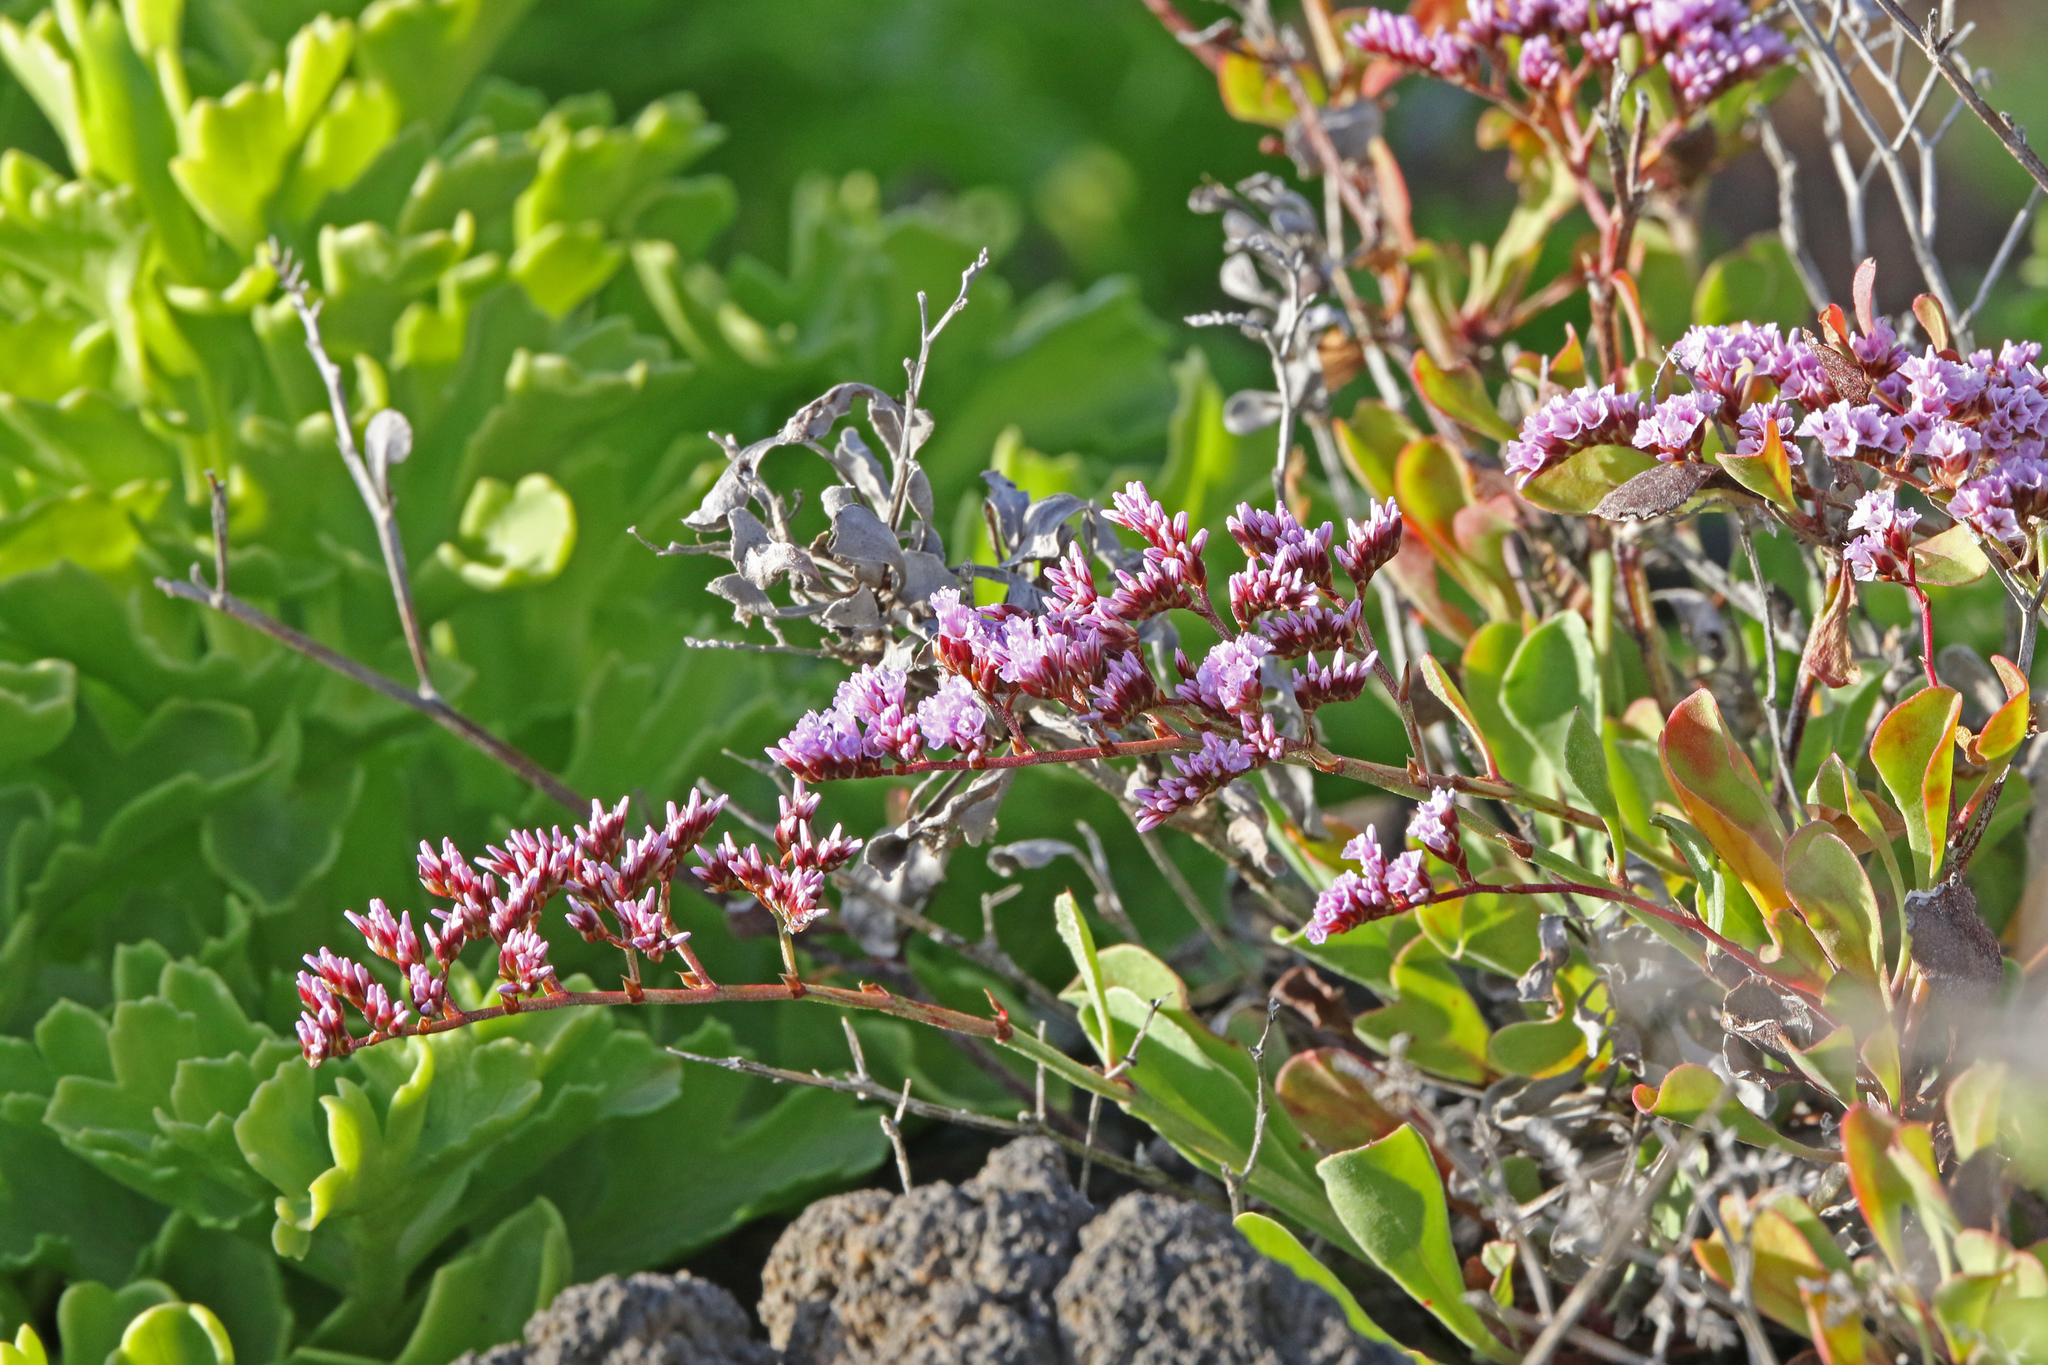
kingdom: Plantae
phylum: Tracheophyta
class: Magnoliopsida
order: Caryophyllales
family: Plumbaginaceae
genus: Limonium
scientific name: Limonium pectinatum
